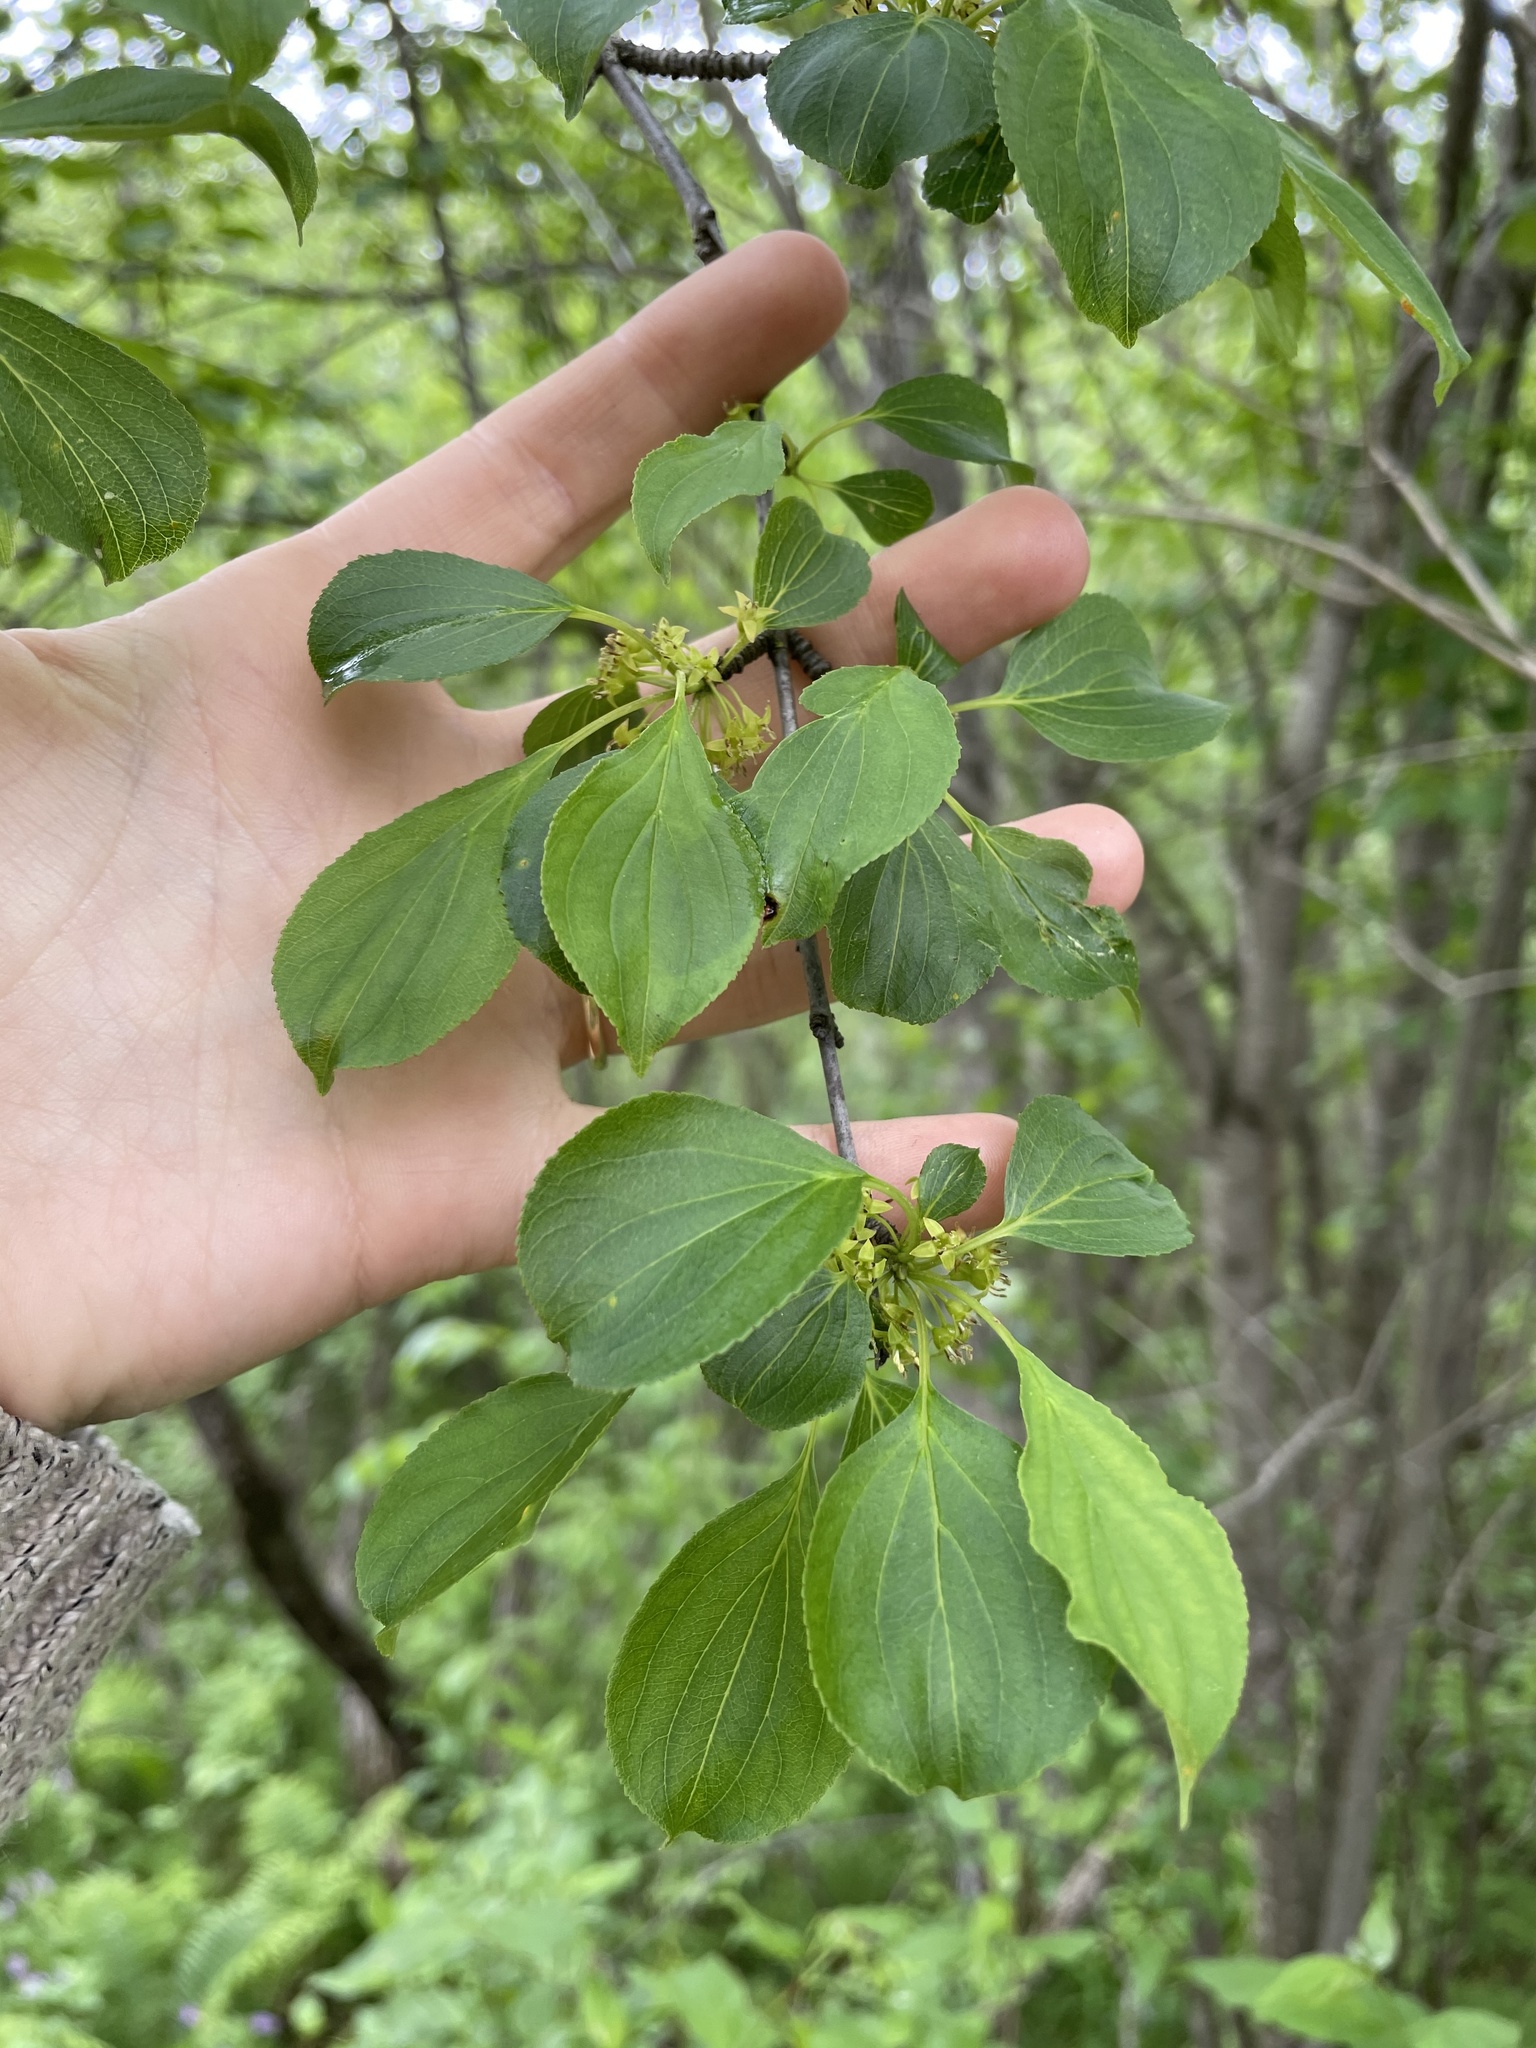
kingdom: Plantae
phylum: Tracheophyta
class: Magnoliopsida
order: Rosales
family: Rhamnaceae
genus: Rhamnus
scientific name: Rhamnus cathartica
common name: Common buckthorn
